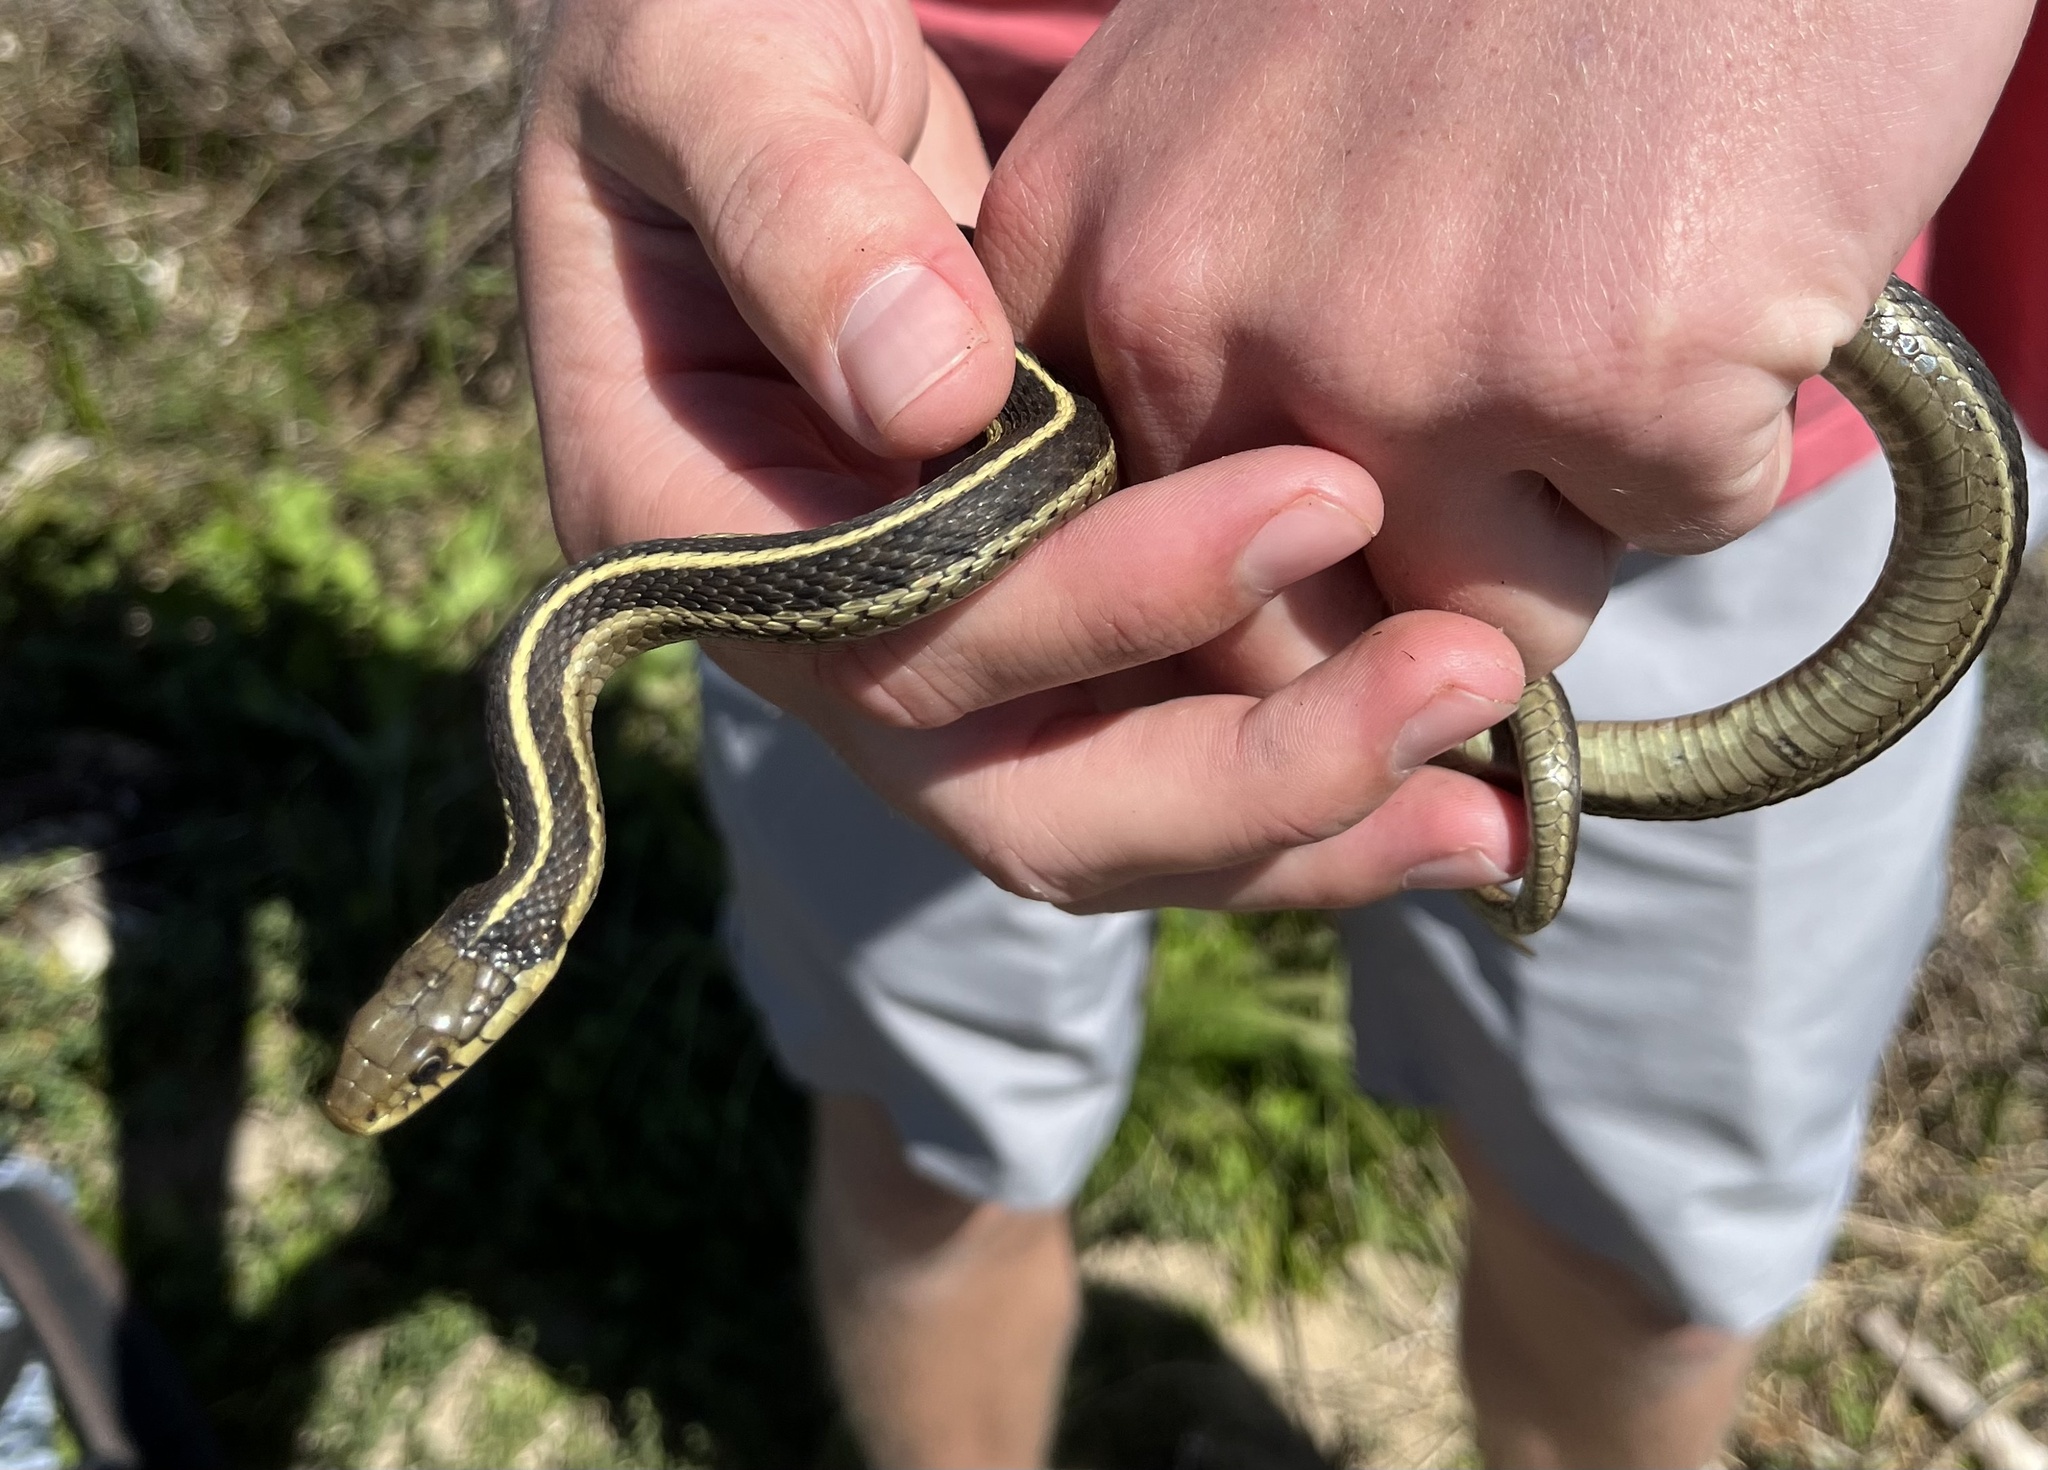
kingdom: Animalia
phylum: Chordata
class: Squamata
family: Colubridae
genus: Thamnophis
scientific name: Thamnophis elegans
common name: Western terrestrial garter snake
